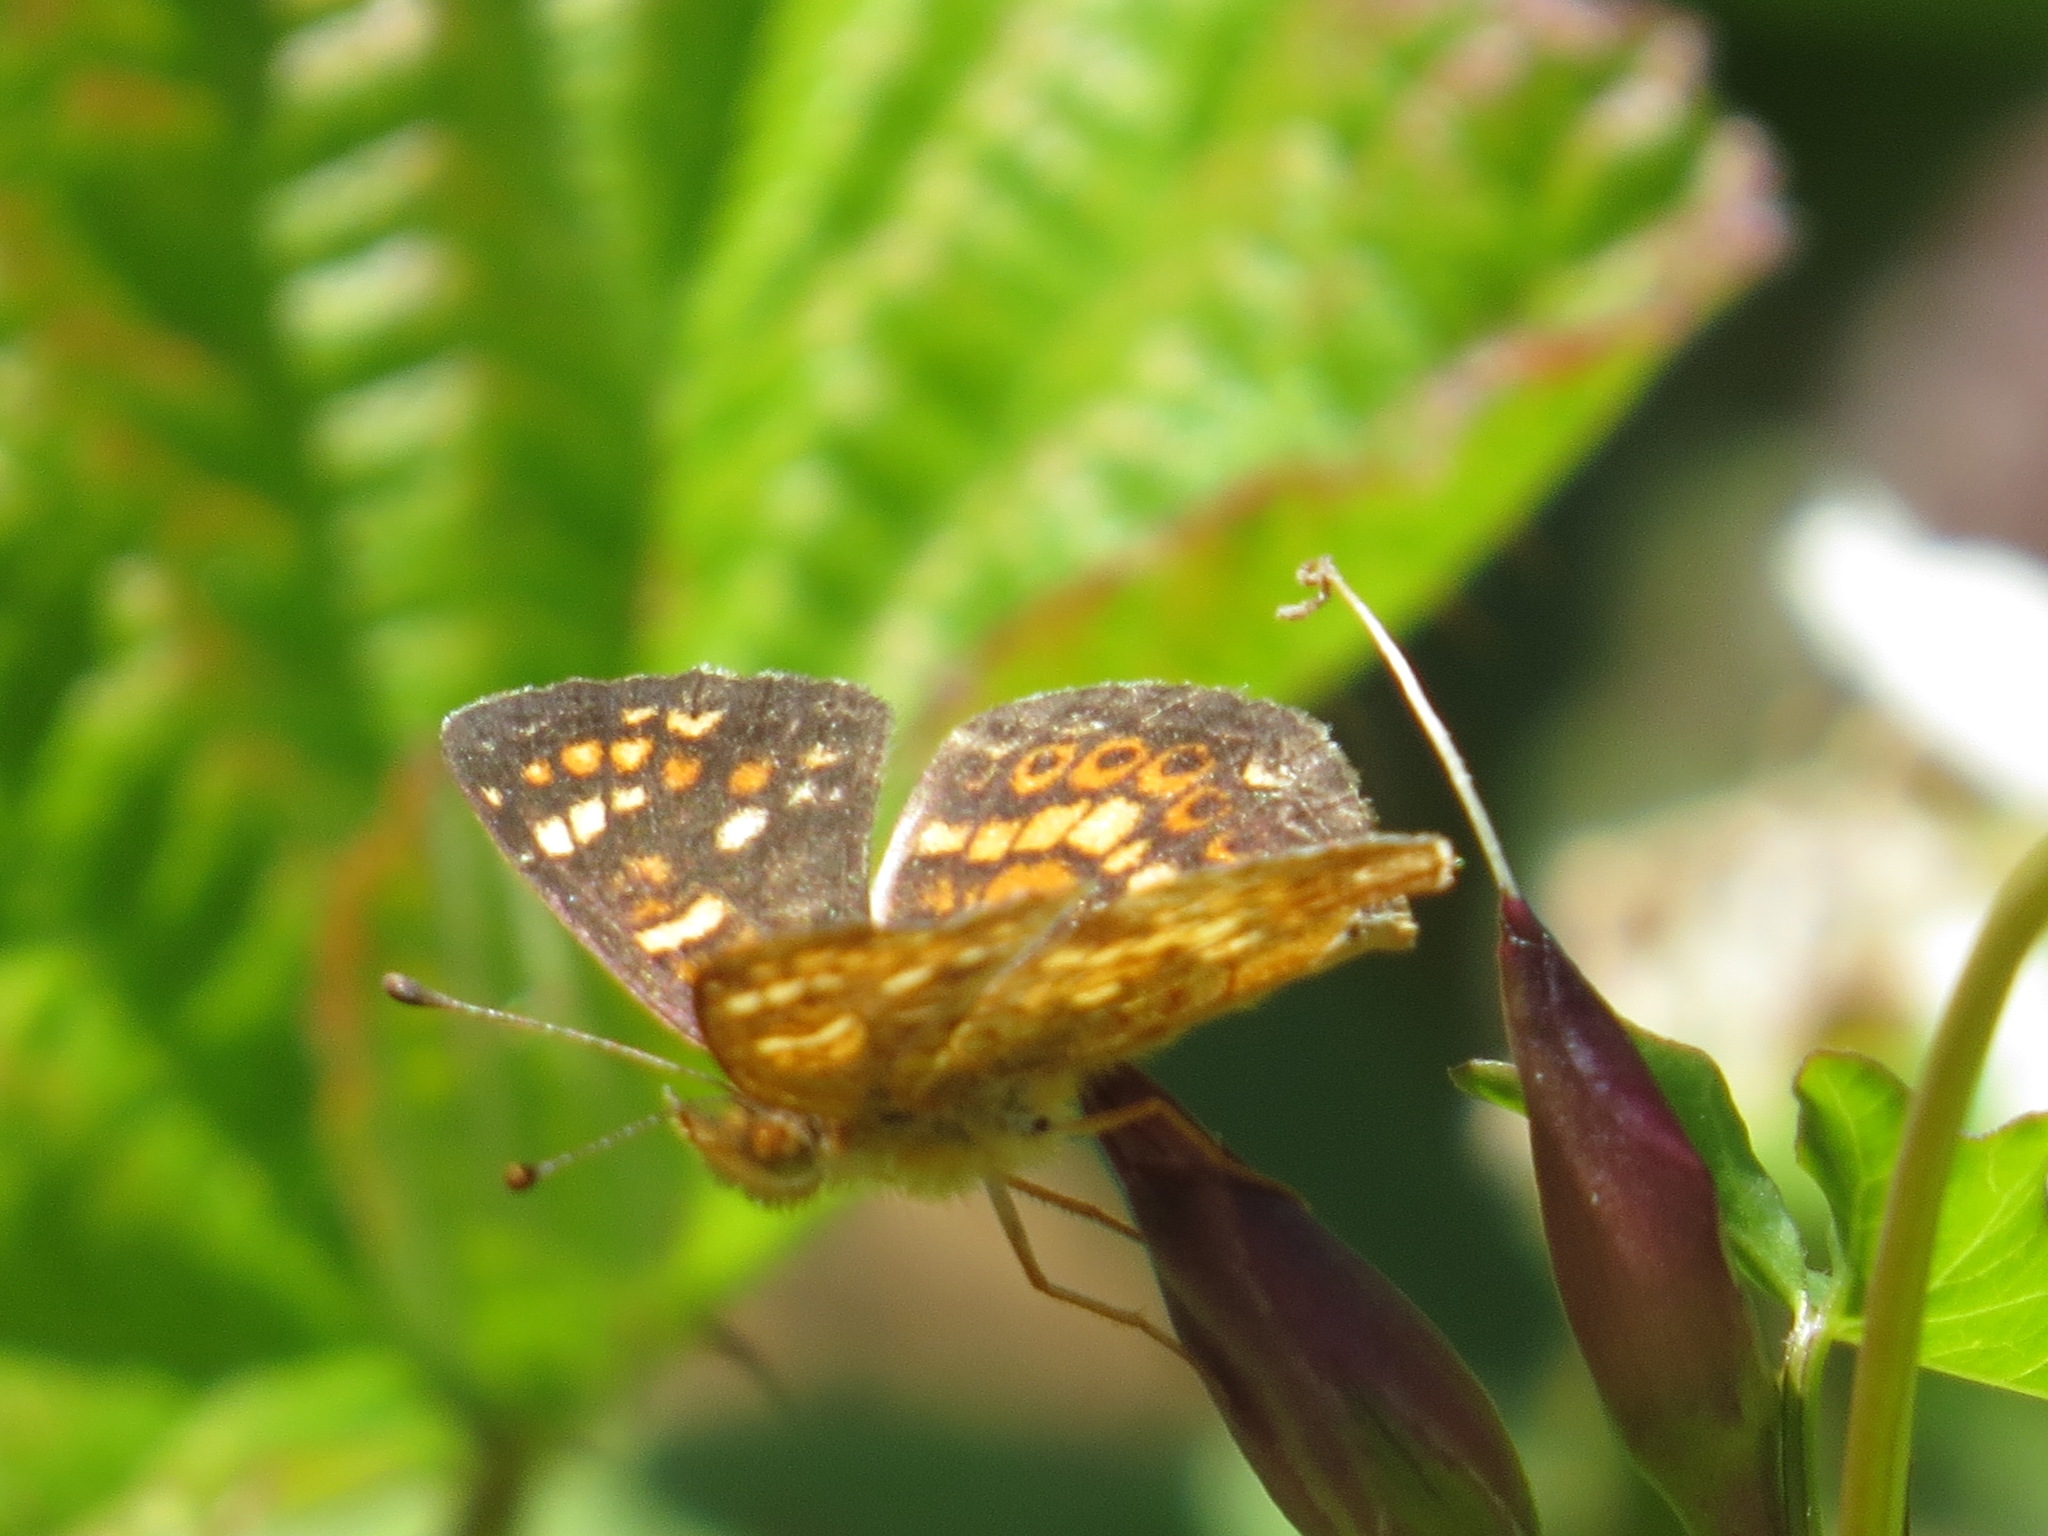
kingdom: Animalia
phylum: Arthropoda
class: Insecta
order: Lepidoptera
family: Nymphalidae
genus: Phyciodes
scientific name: Phyciodes tharos
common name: Pearl crescent
